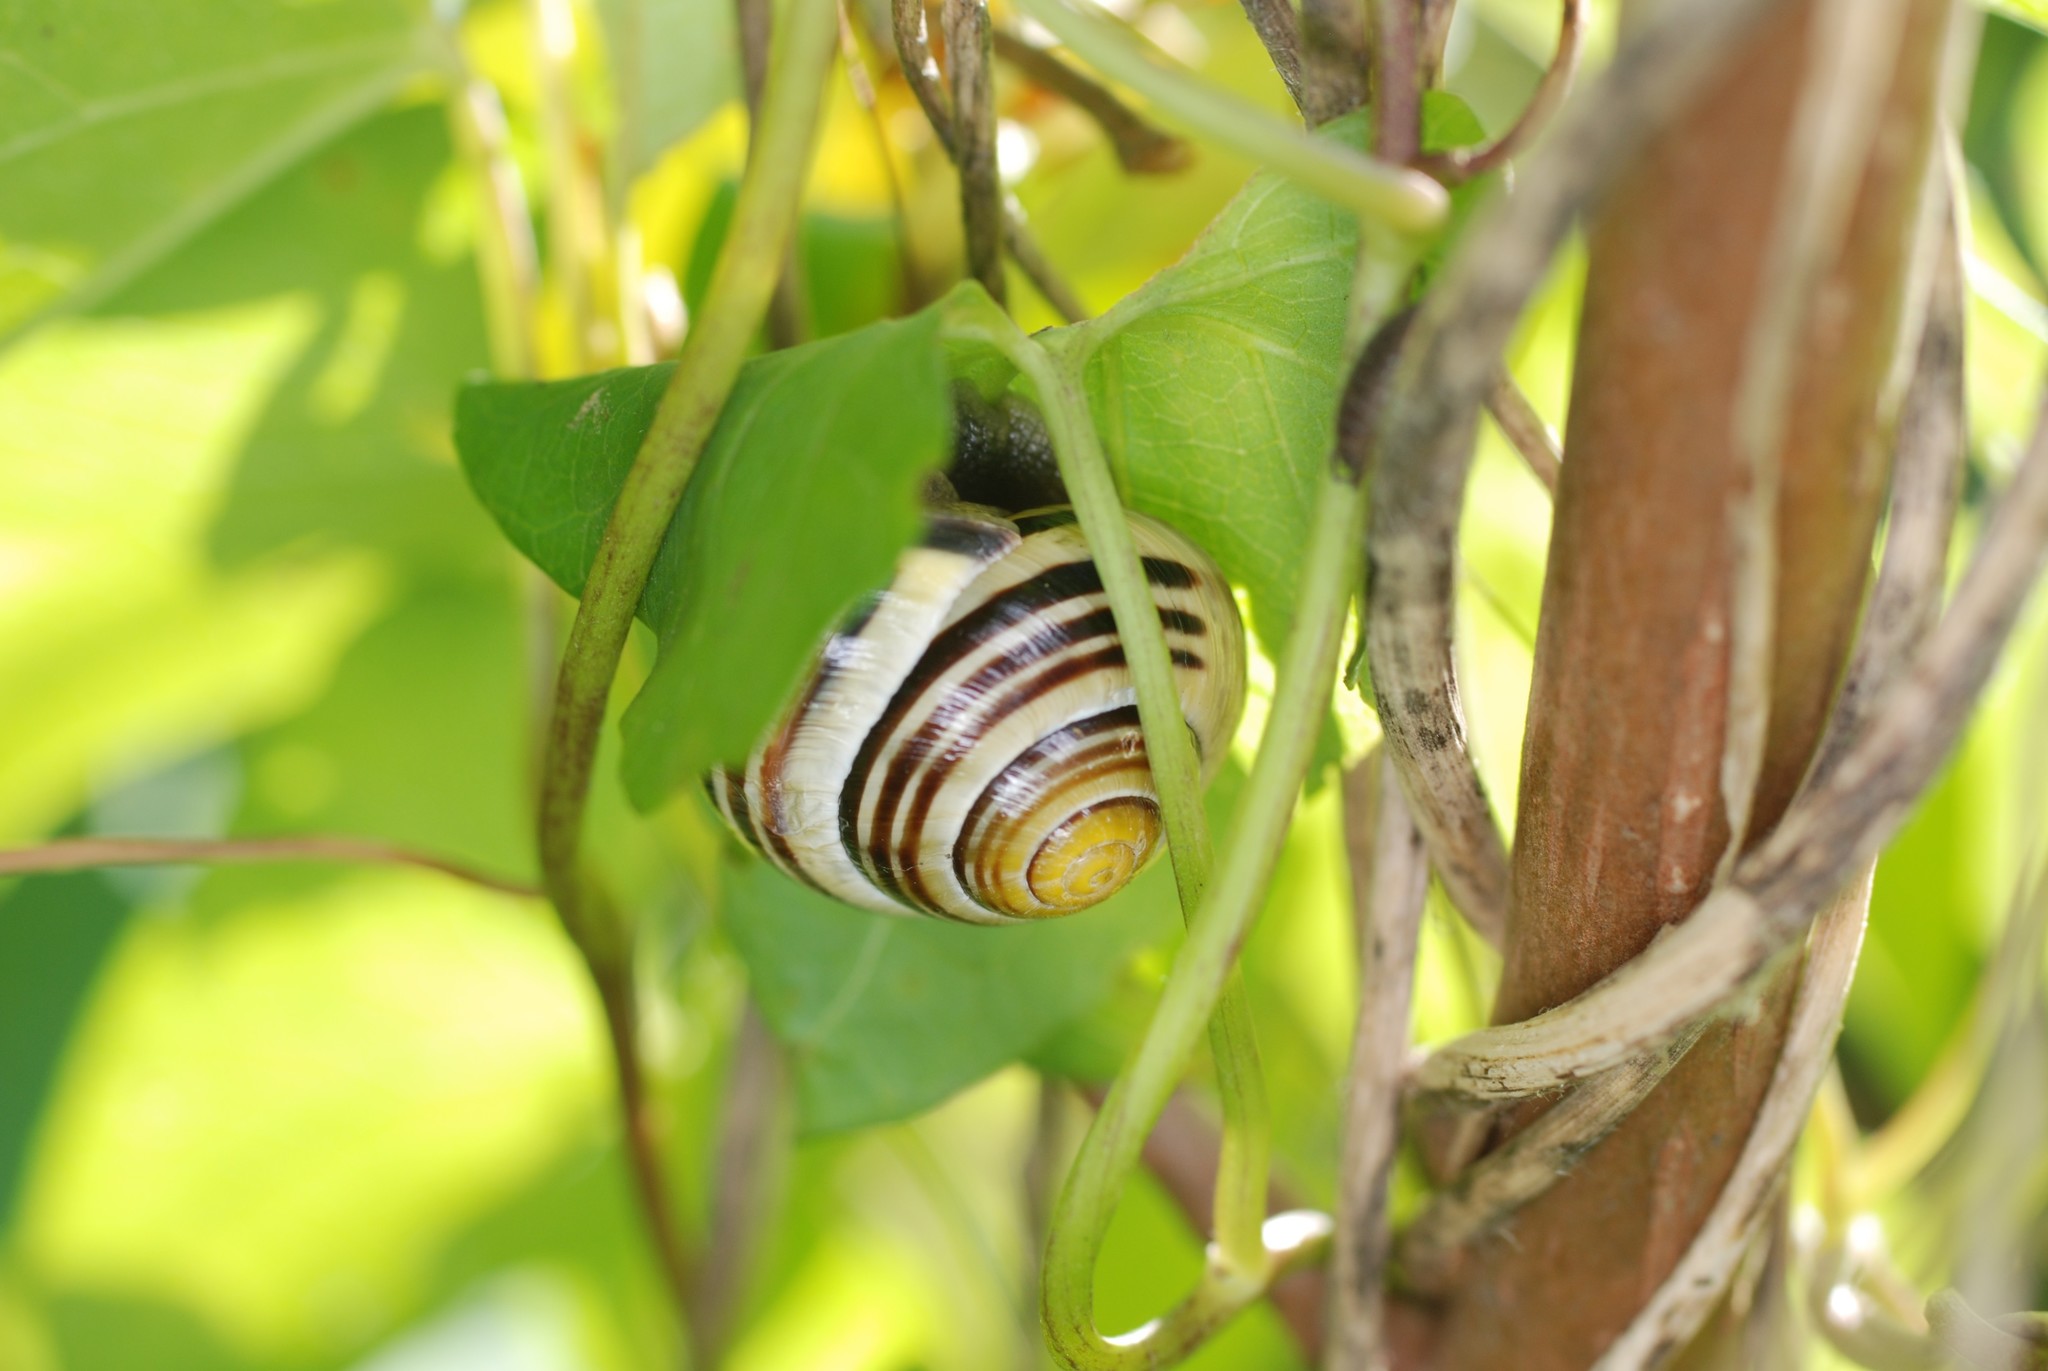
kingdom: Animalia
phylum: Mollusca
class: Gastropoda
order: Stylommatophora
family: Helicidae
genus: Cepaea
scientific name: Cepaea nemoralis
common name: Grovesnail
